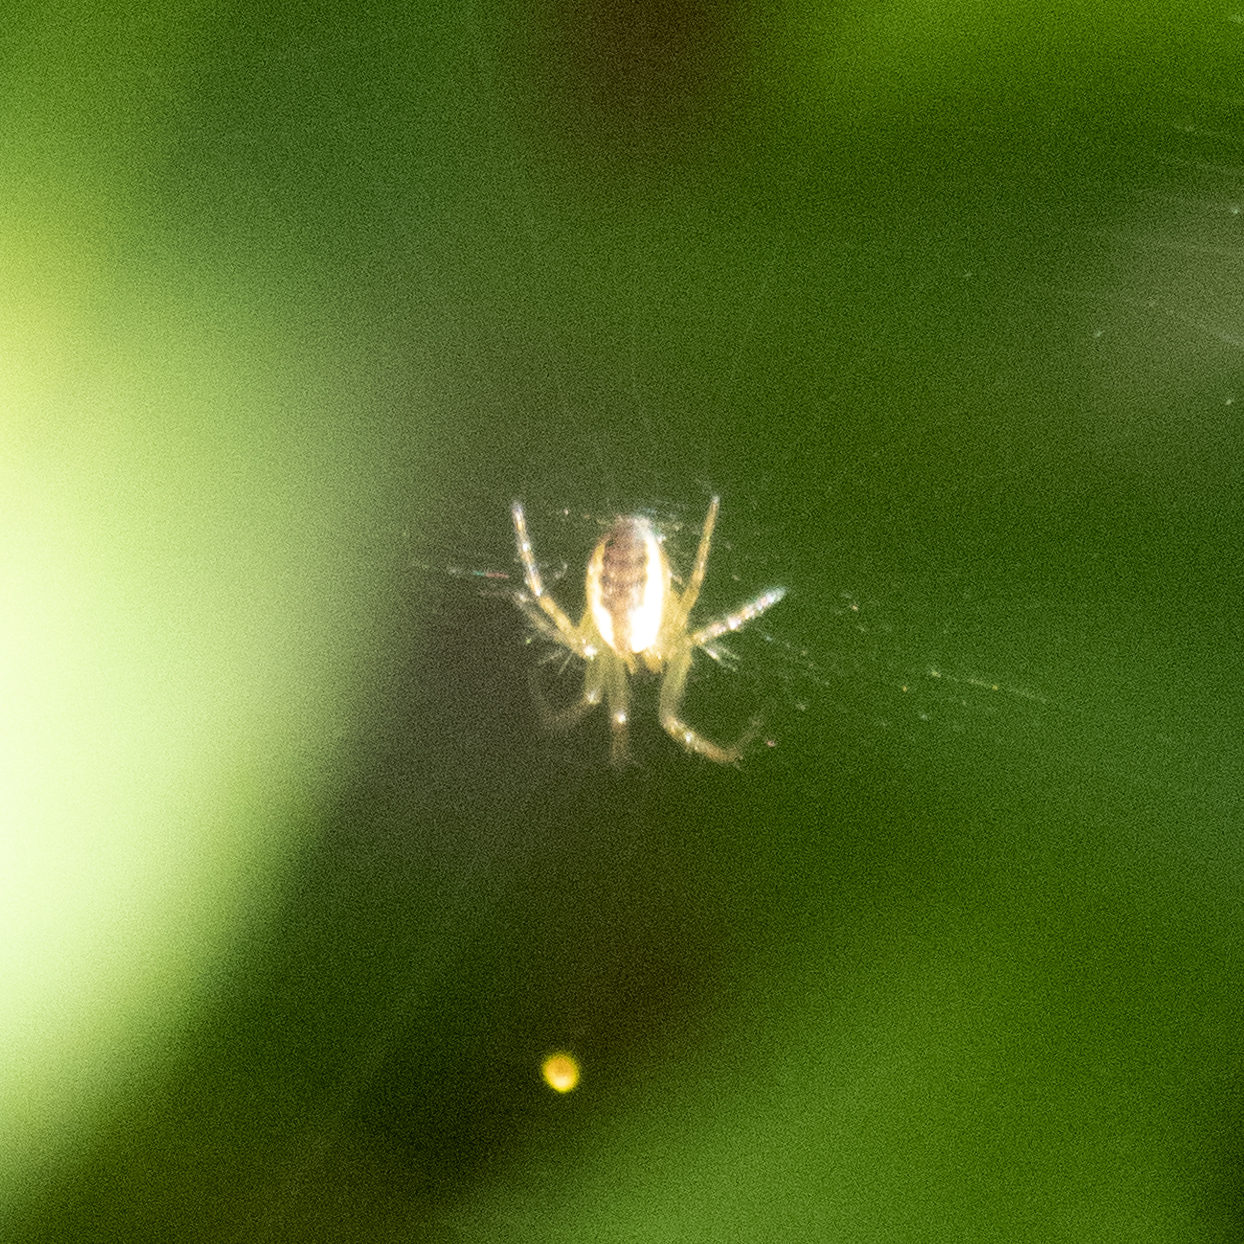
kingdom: Animalia
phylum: Arthropoda
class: Arachnida
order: Araneae
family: Araneidae
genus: Mangora
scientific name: Mangora placida
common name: Tuft-legged orbweaver
